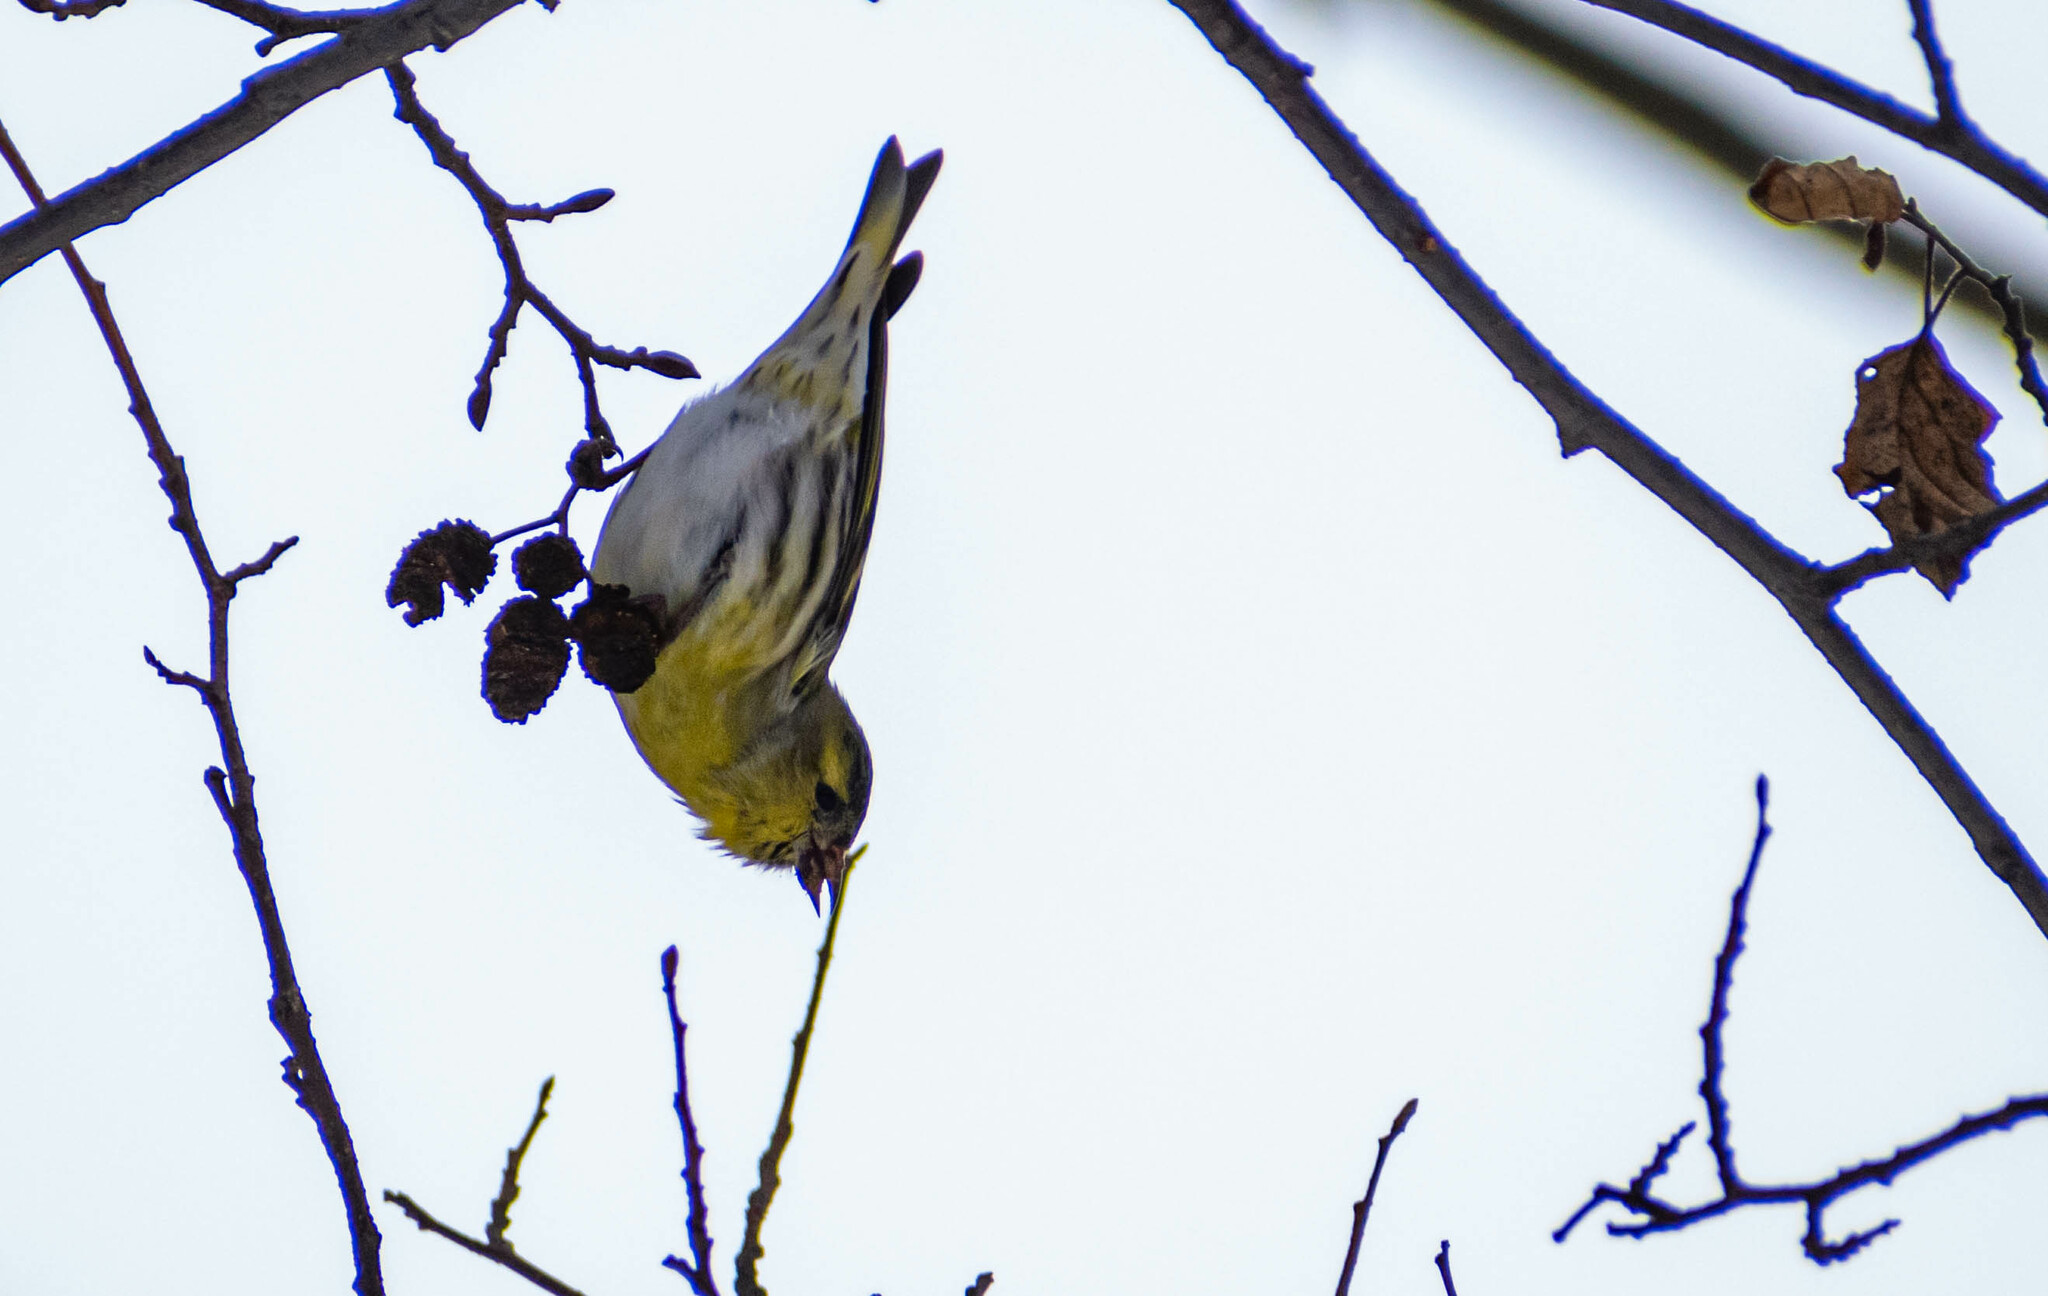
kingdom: Animalia
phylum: Chordata
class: Aves
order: Passeriformes
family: Fringillidae
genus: Spinus
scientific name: Spinus spinus
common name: Eurasian siskin
